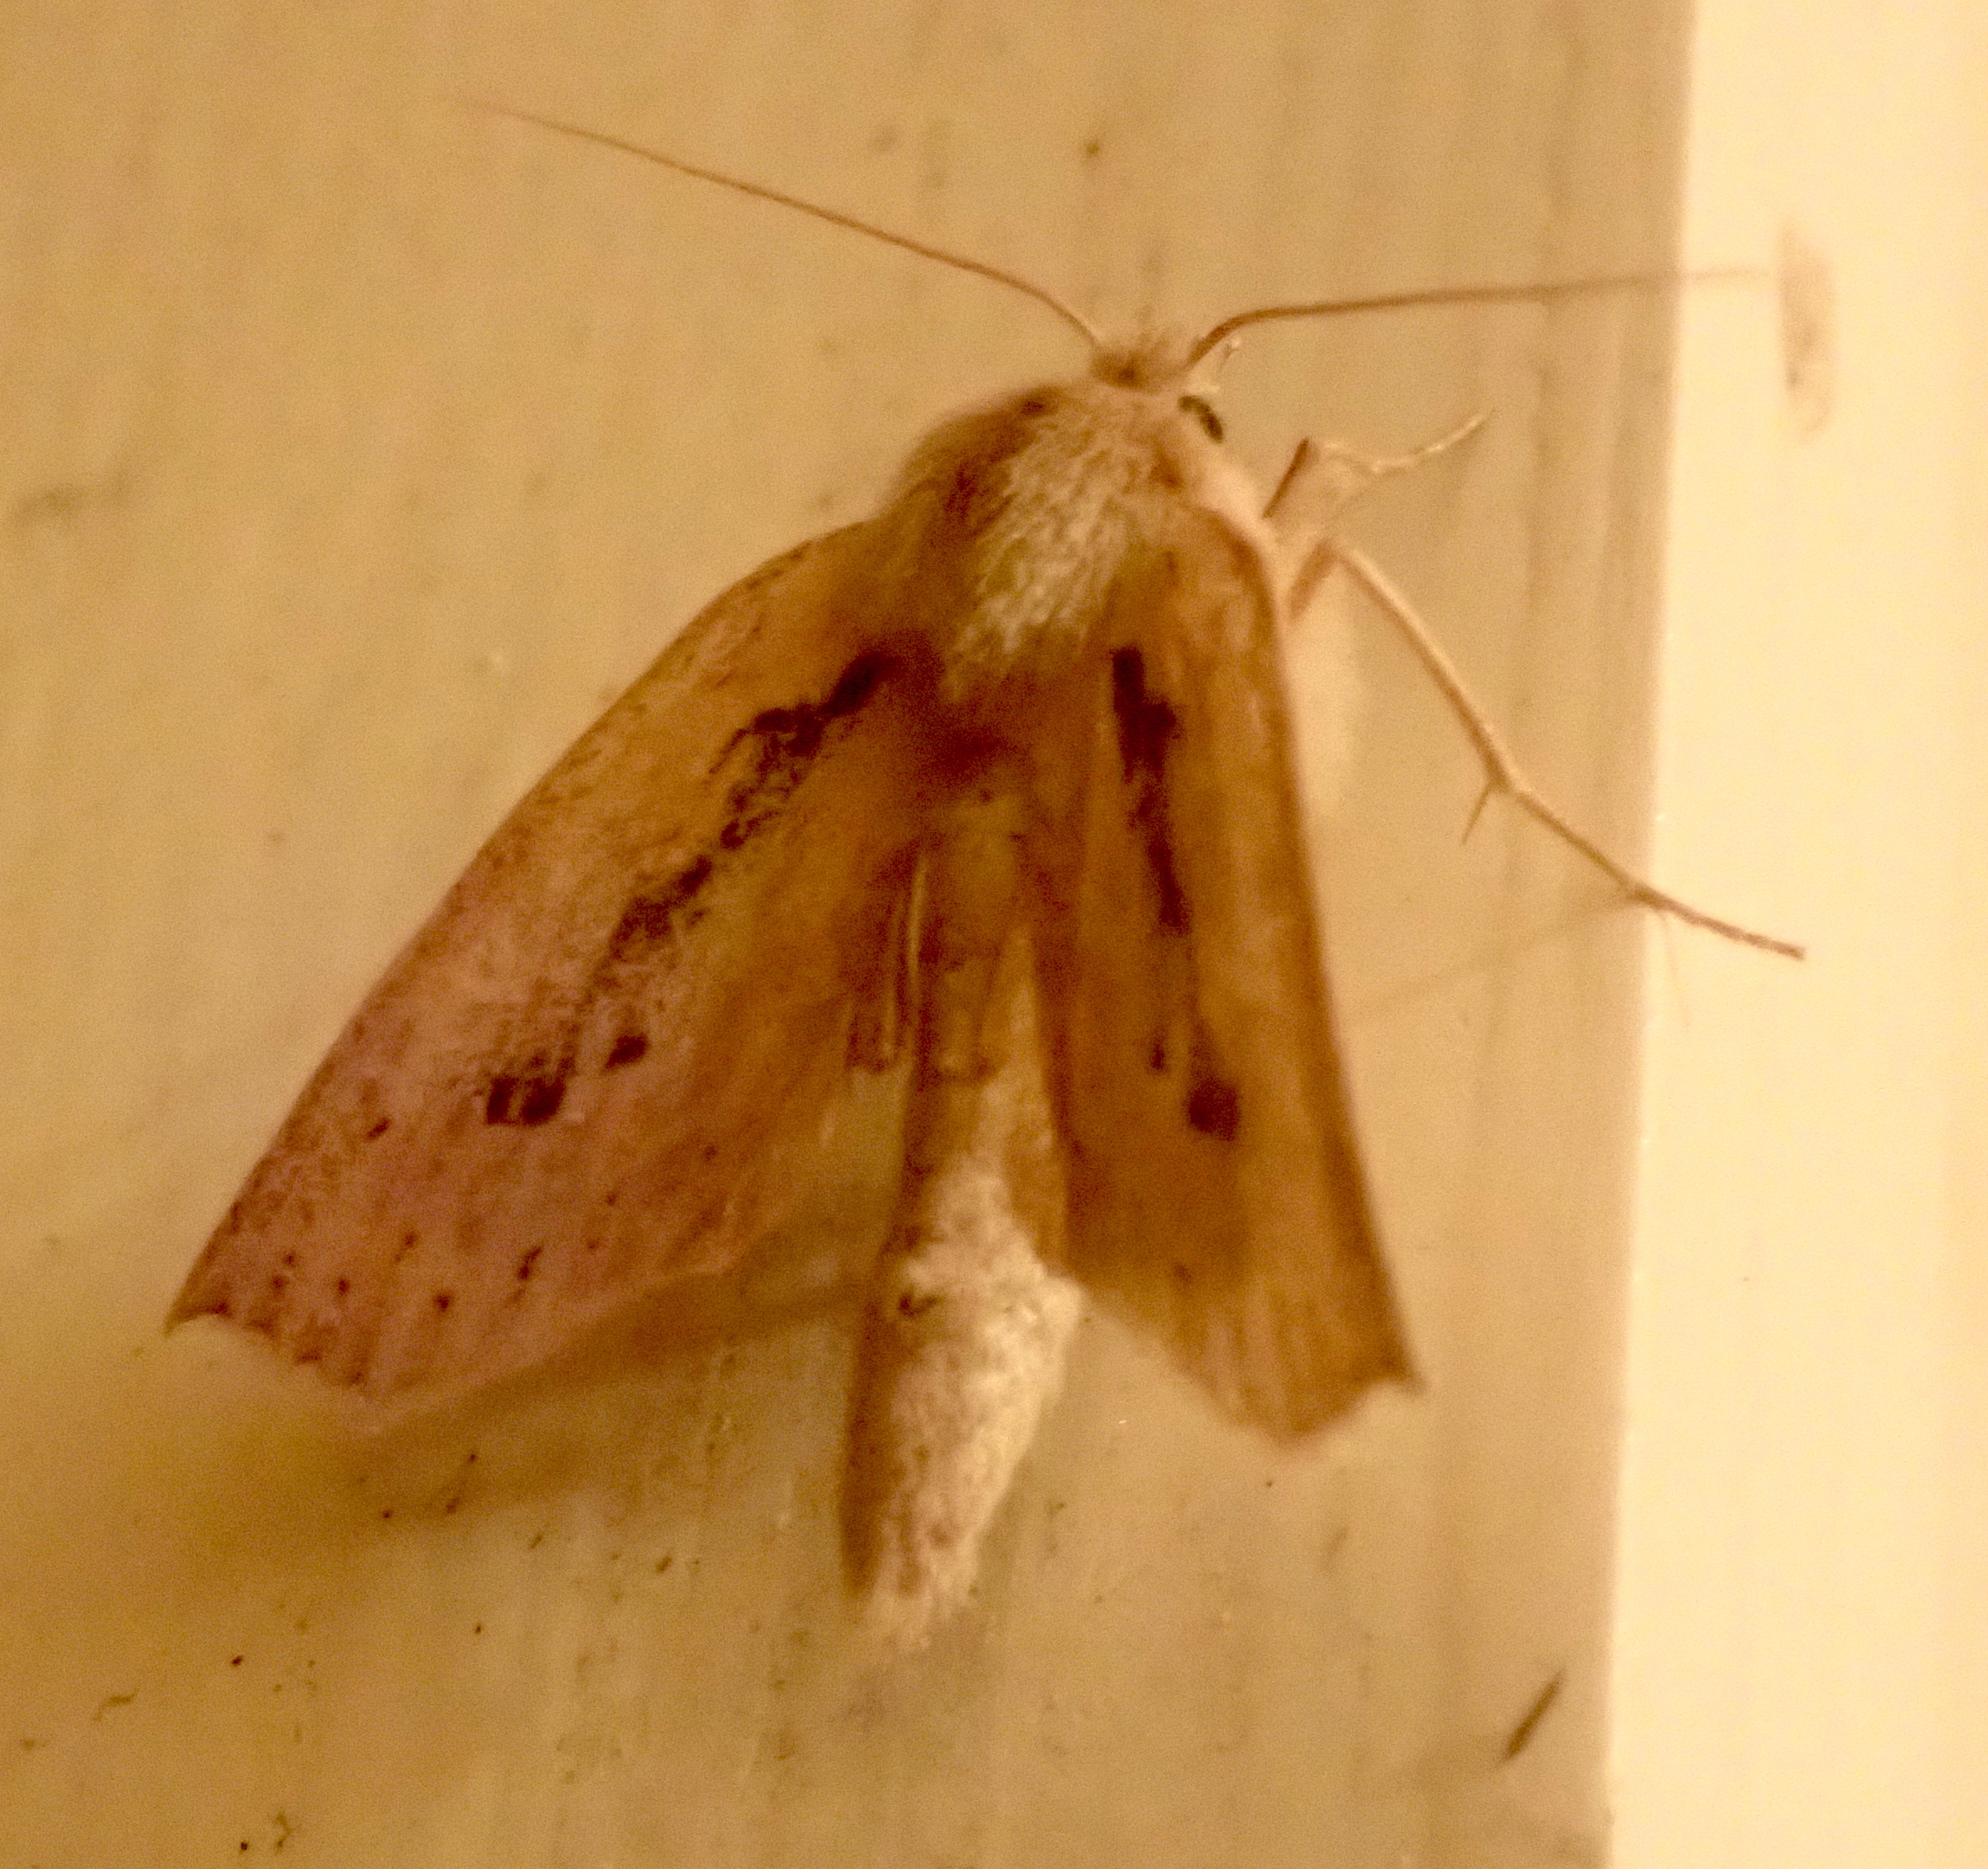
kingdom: Animalia
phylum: Arthropoda
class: Insecta
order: Lepidoptera
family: Geometridae
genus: Declana
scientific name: Declana leptomera
